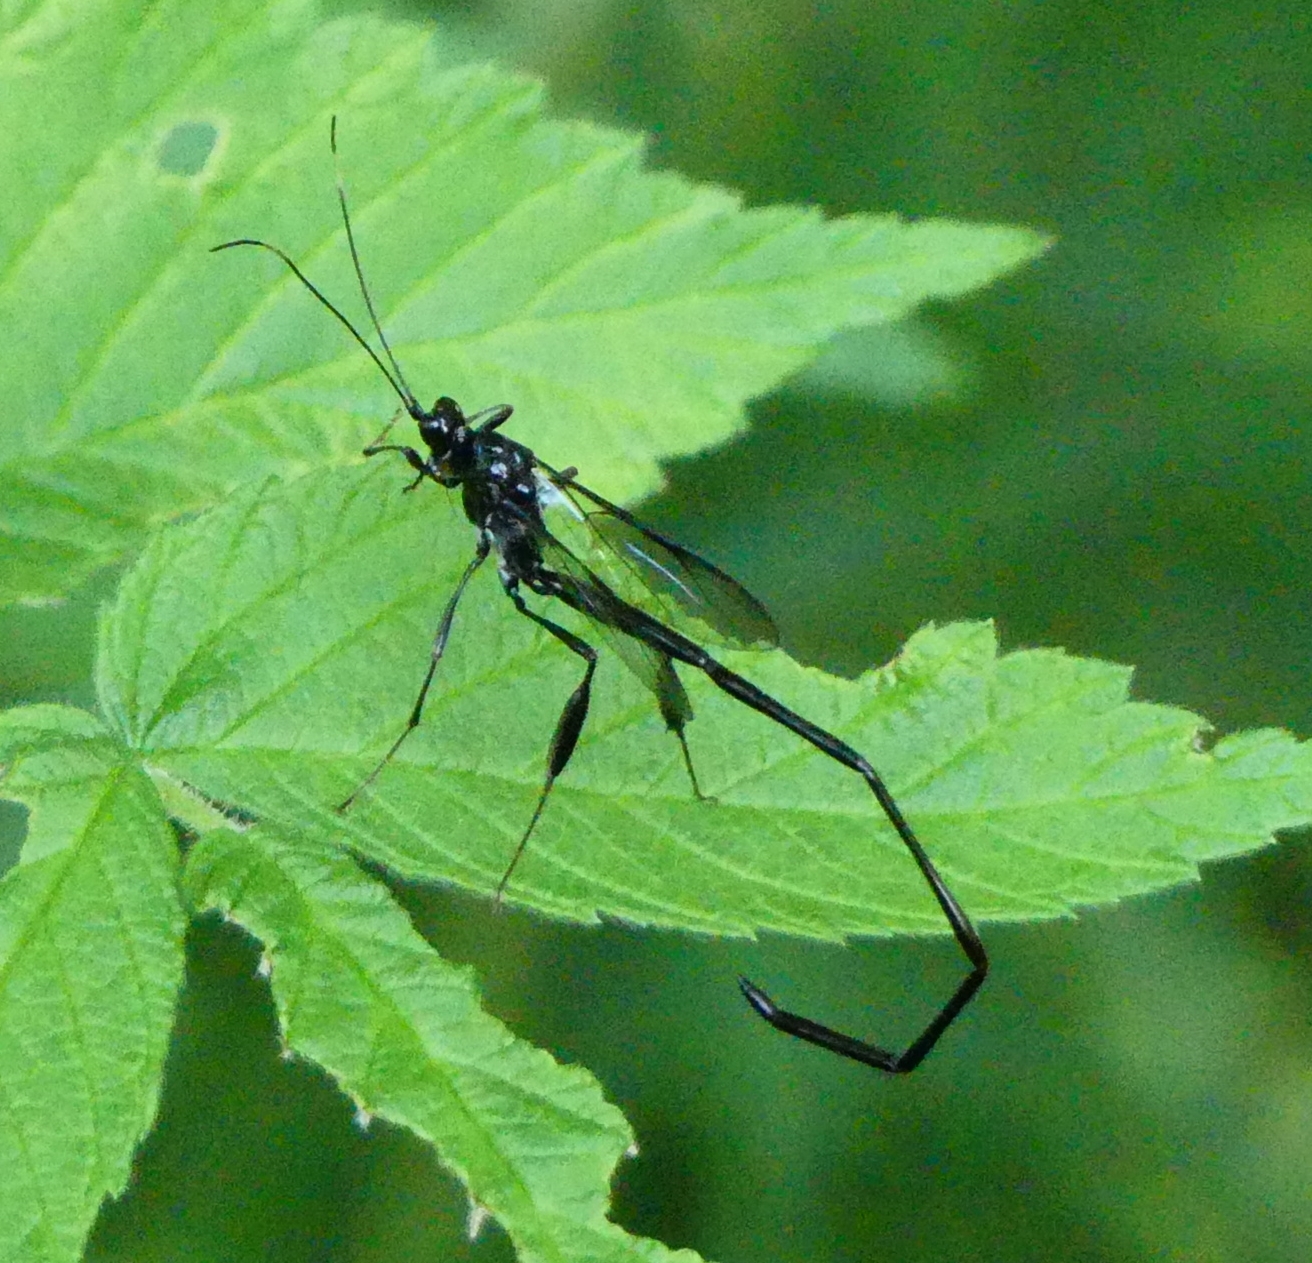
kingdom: Animalia
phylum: Arthropoda
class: Insecta
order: Hymenoptera
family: Pelecinidae
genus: Pelecinus
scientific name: Pelecinus polyturator
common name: American pelecinid wasp
